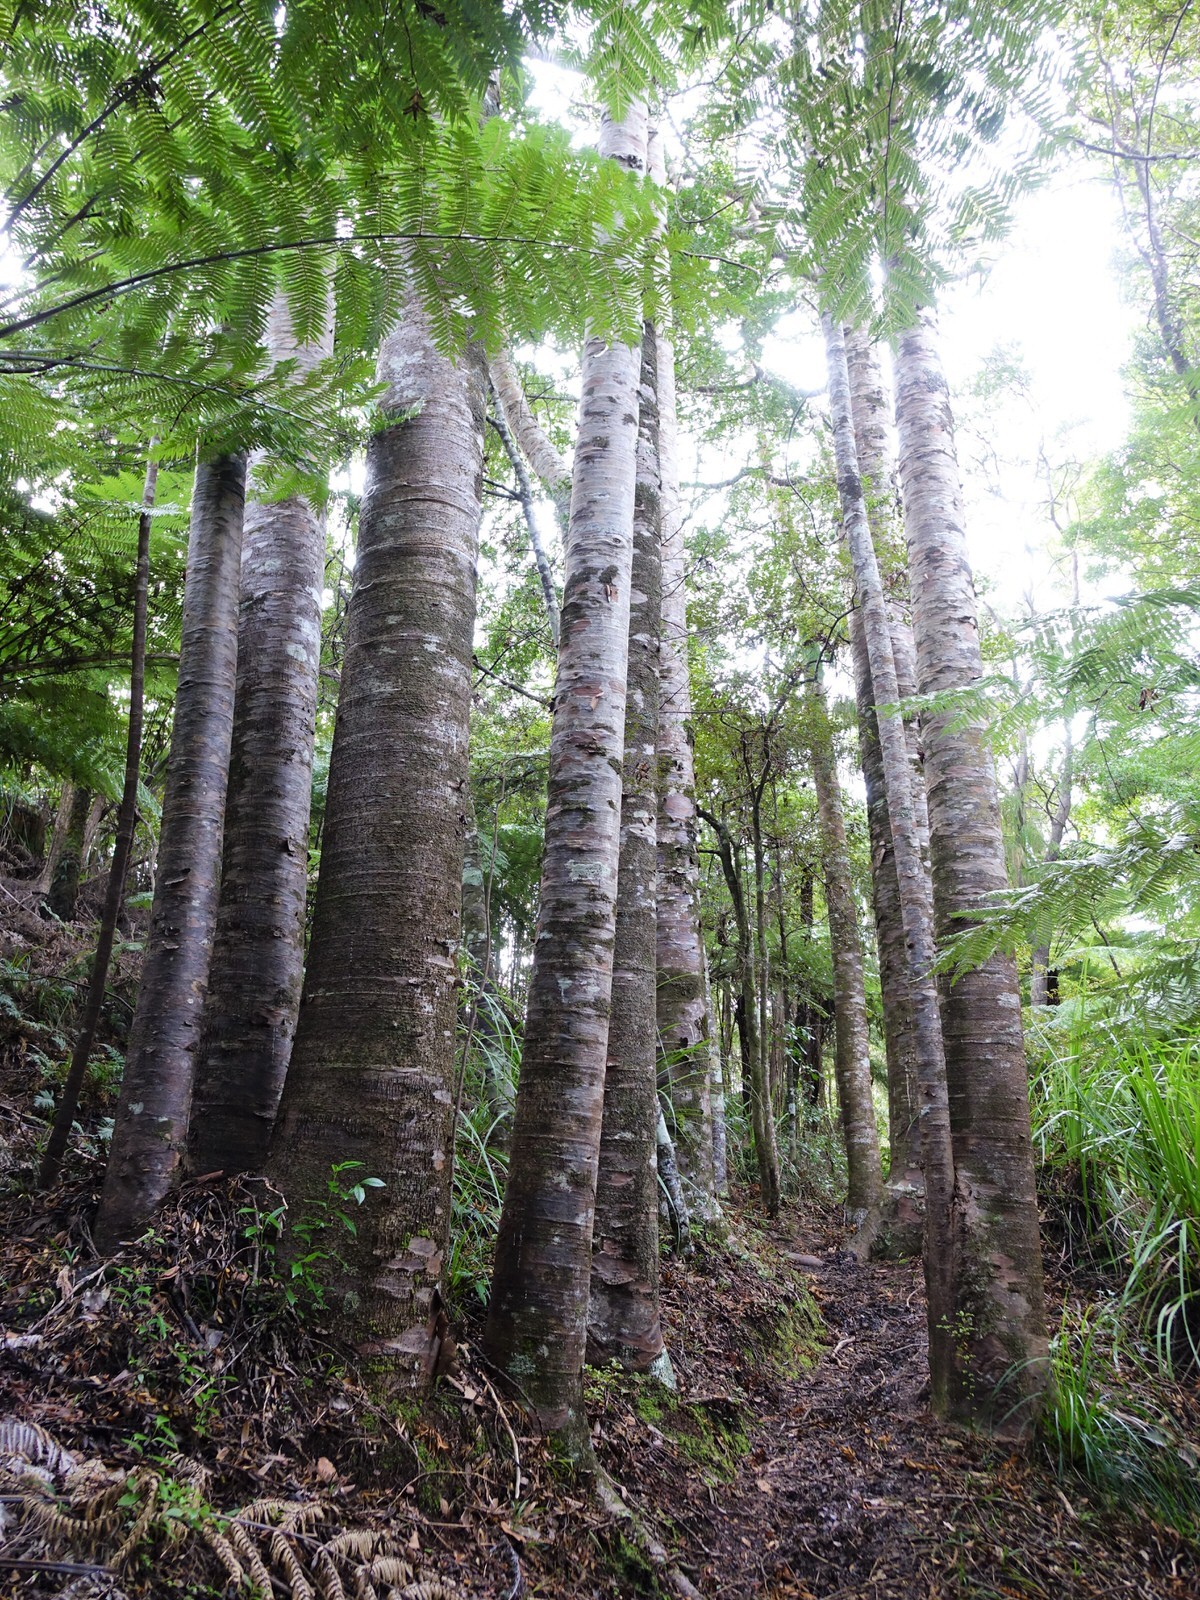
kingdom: Plantae
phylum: Tracheophyta
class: Pinopsida
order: Pinales
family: Araucariaceae
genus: Agathis
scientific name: Agathis australis
